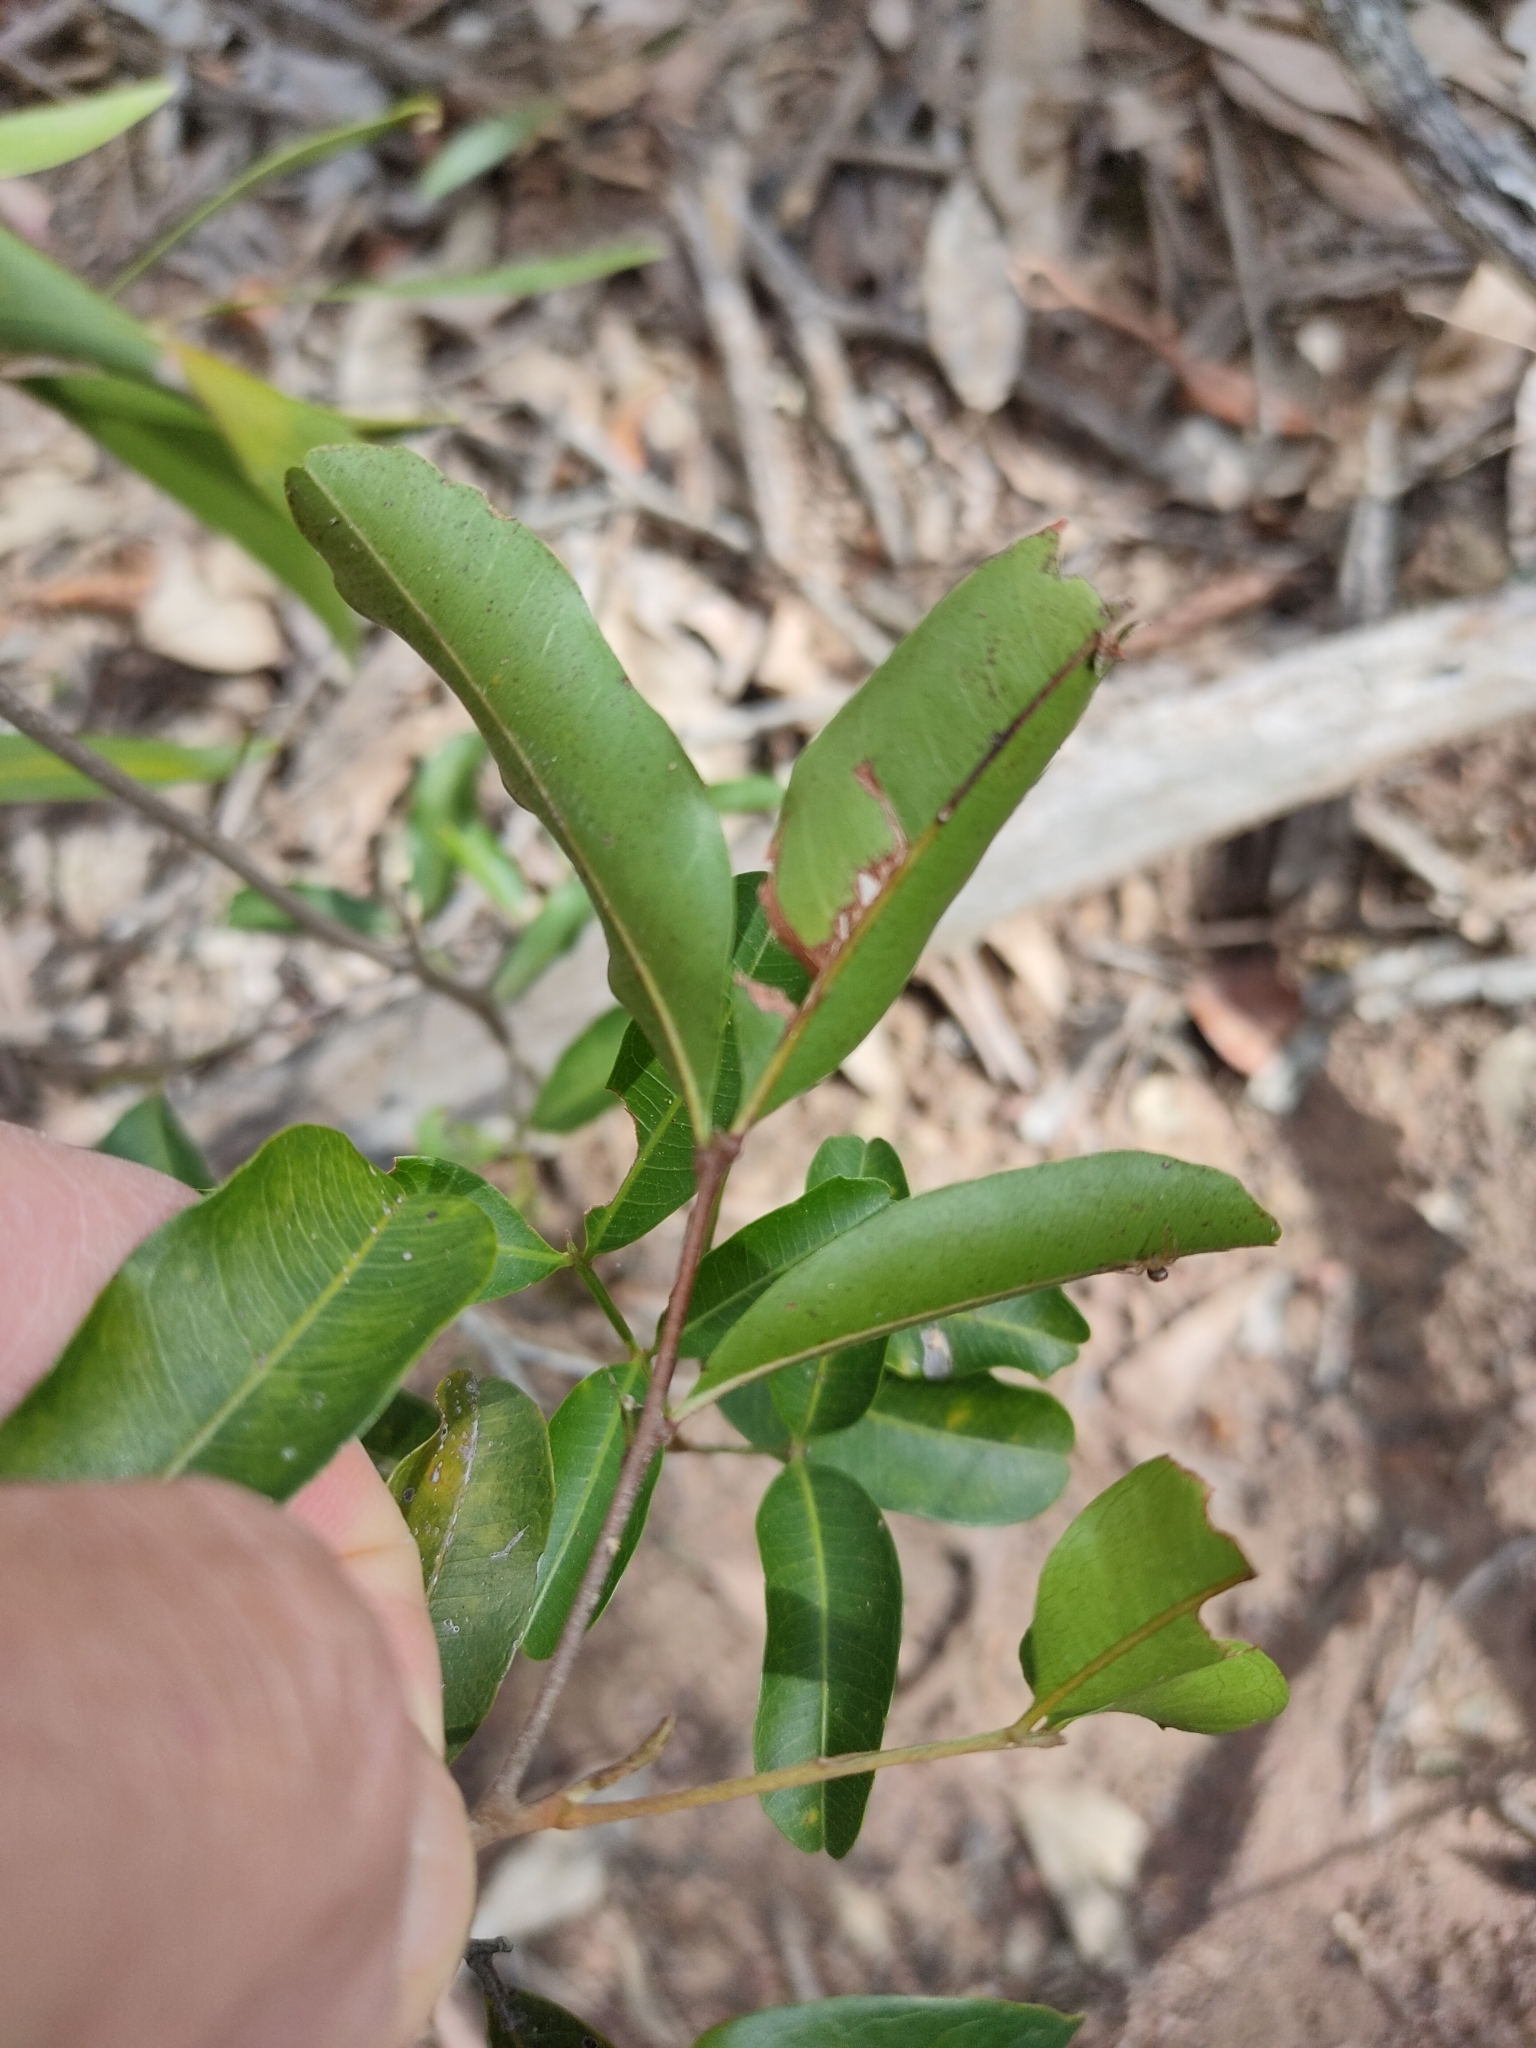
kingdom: Plantae
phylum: Tracheophyta
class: Magnoliopsida
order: Sapindales
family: Sapindaceae
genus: Cupaniopsis
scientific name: Cupaniopsis parvifolia
